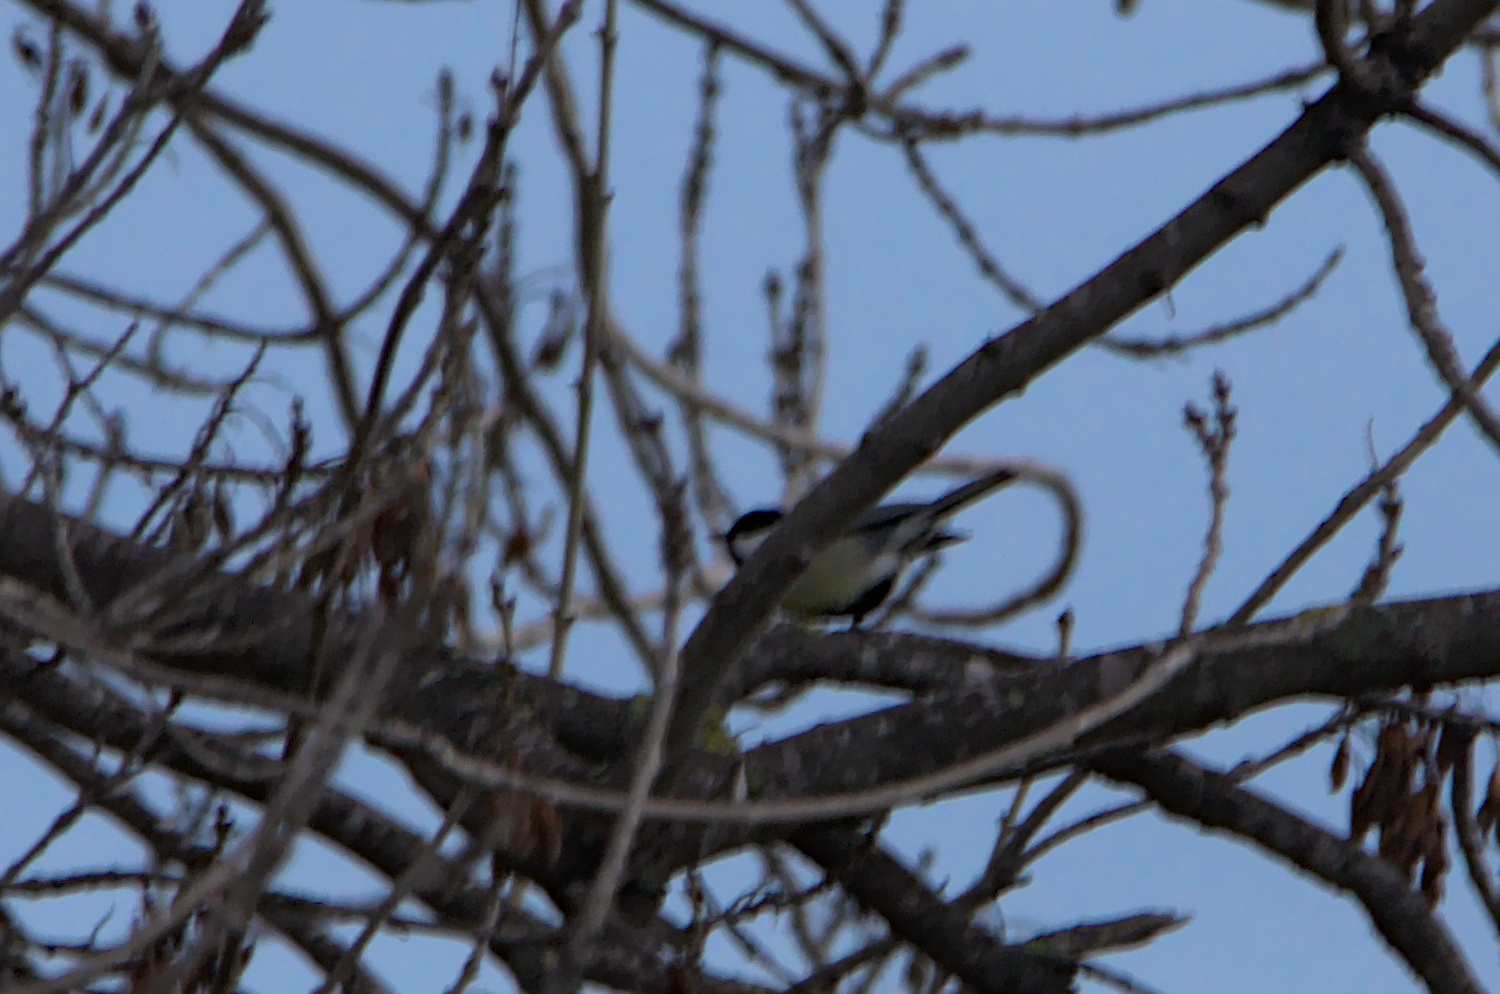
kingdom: Animalia
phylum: Chordata
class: Aves
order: Passeriformes
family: Paridae
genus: Parus
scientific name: Parus major
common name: Great tit
